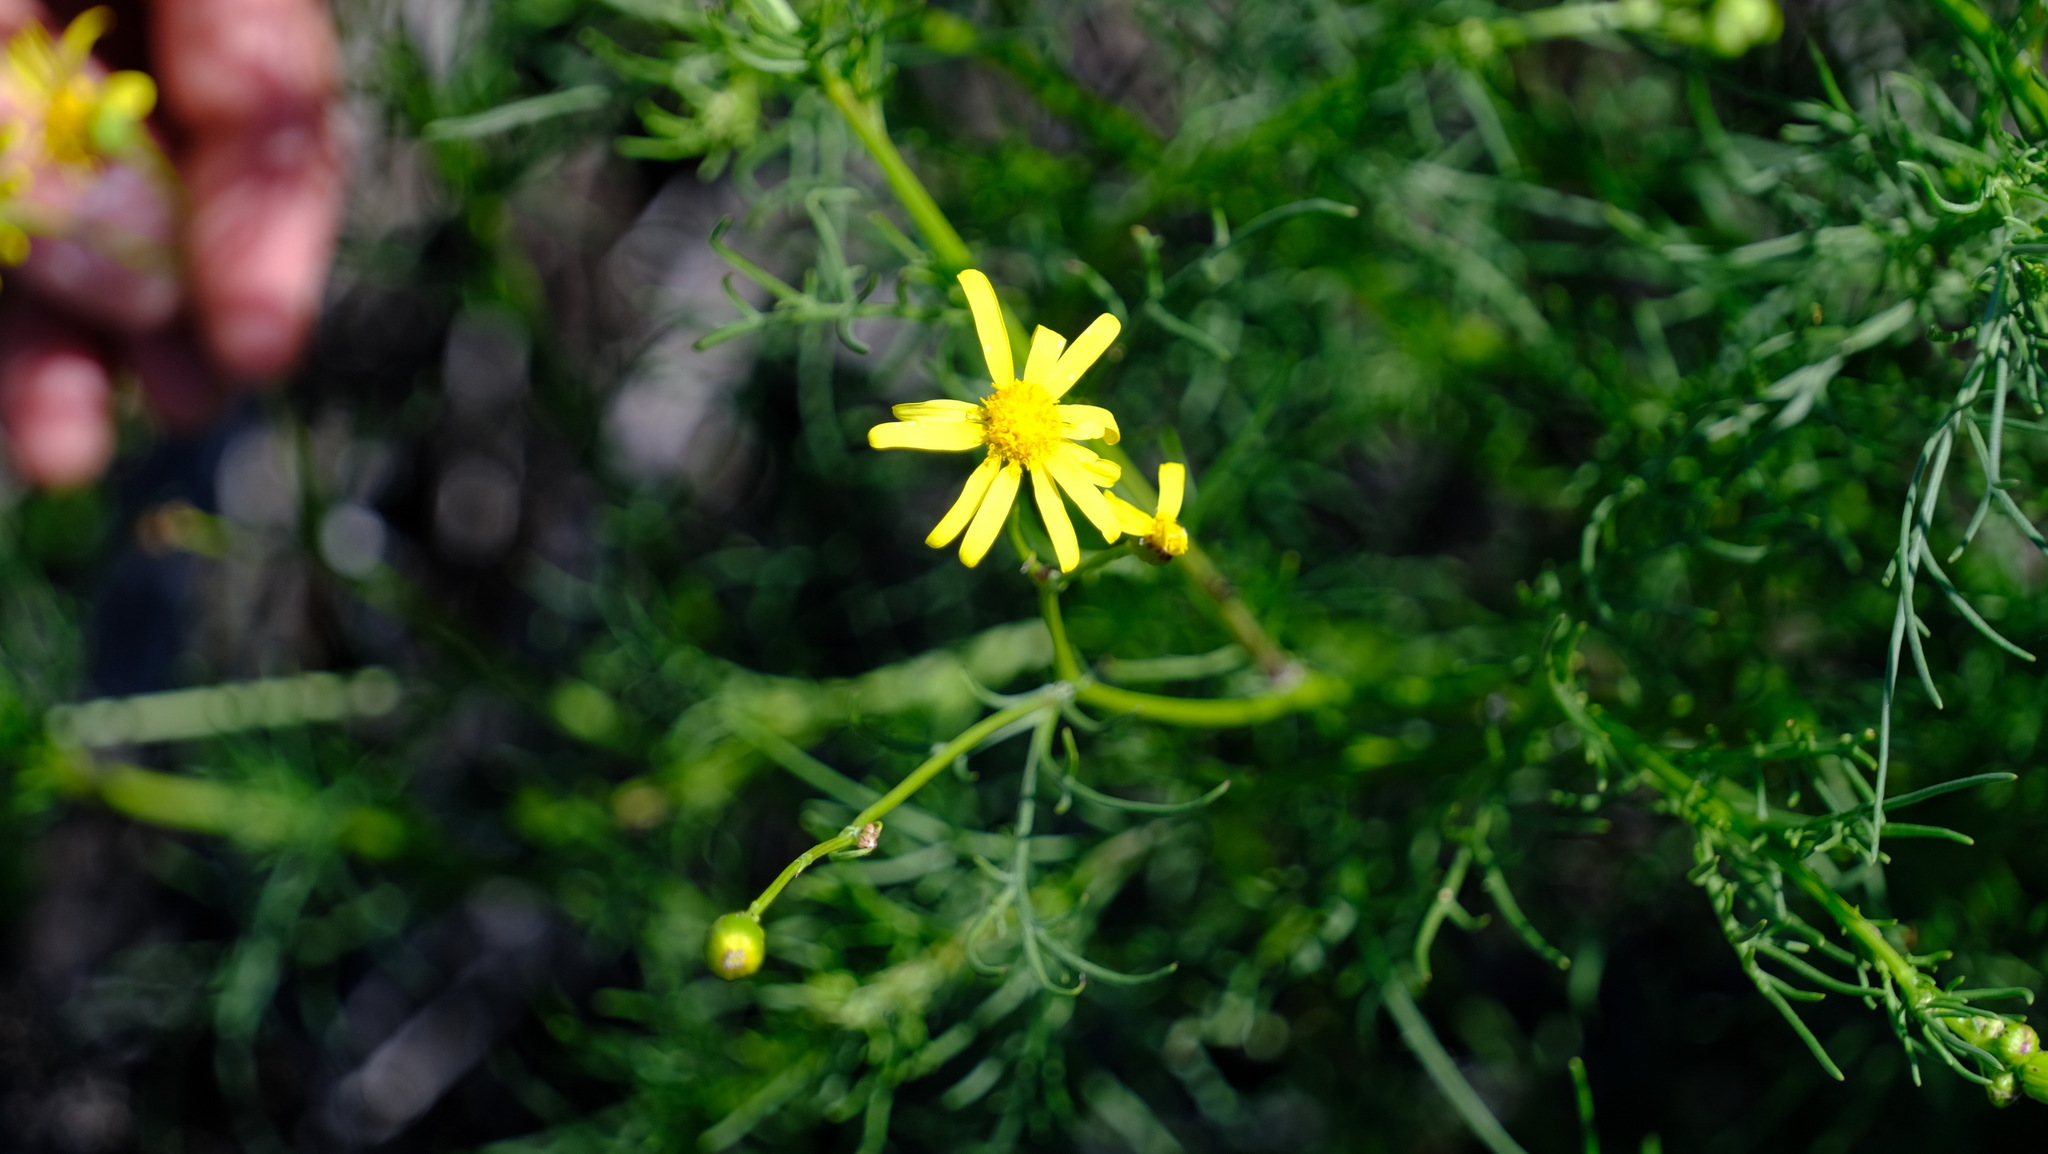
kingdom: Plantae
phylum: Tracheophyta
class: Magnoliopsida
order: Asterales
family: Asteraceae
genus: Senecio
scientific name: Senecio pinnatifolius
